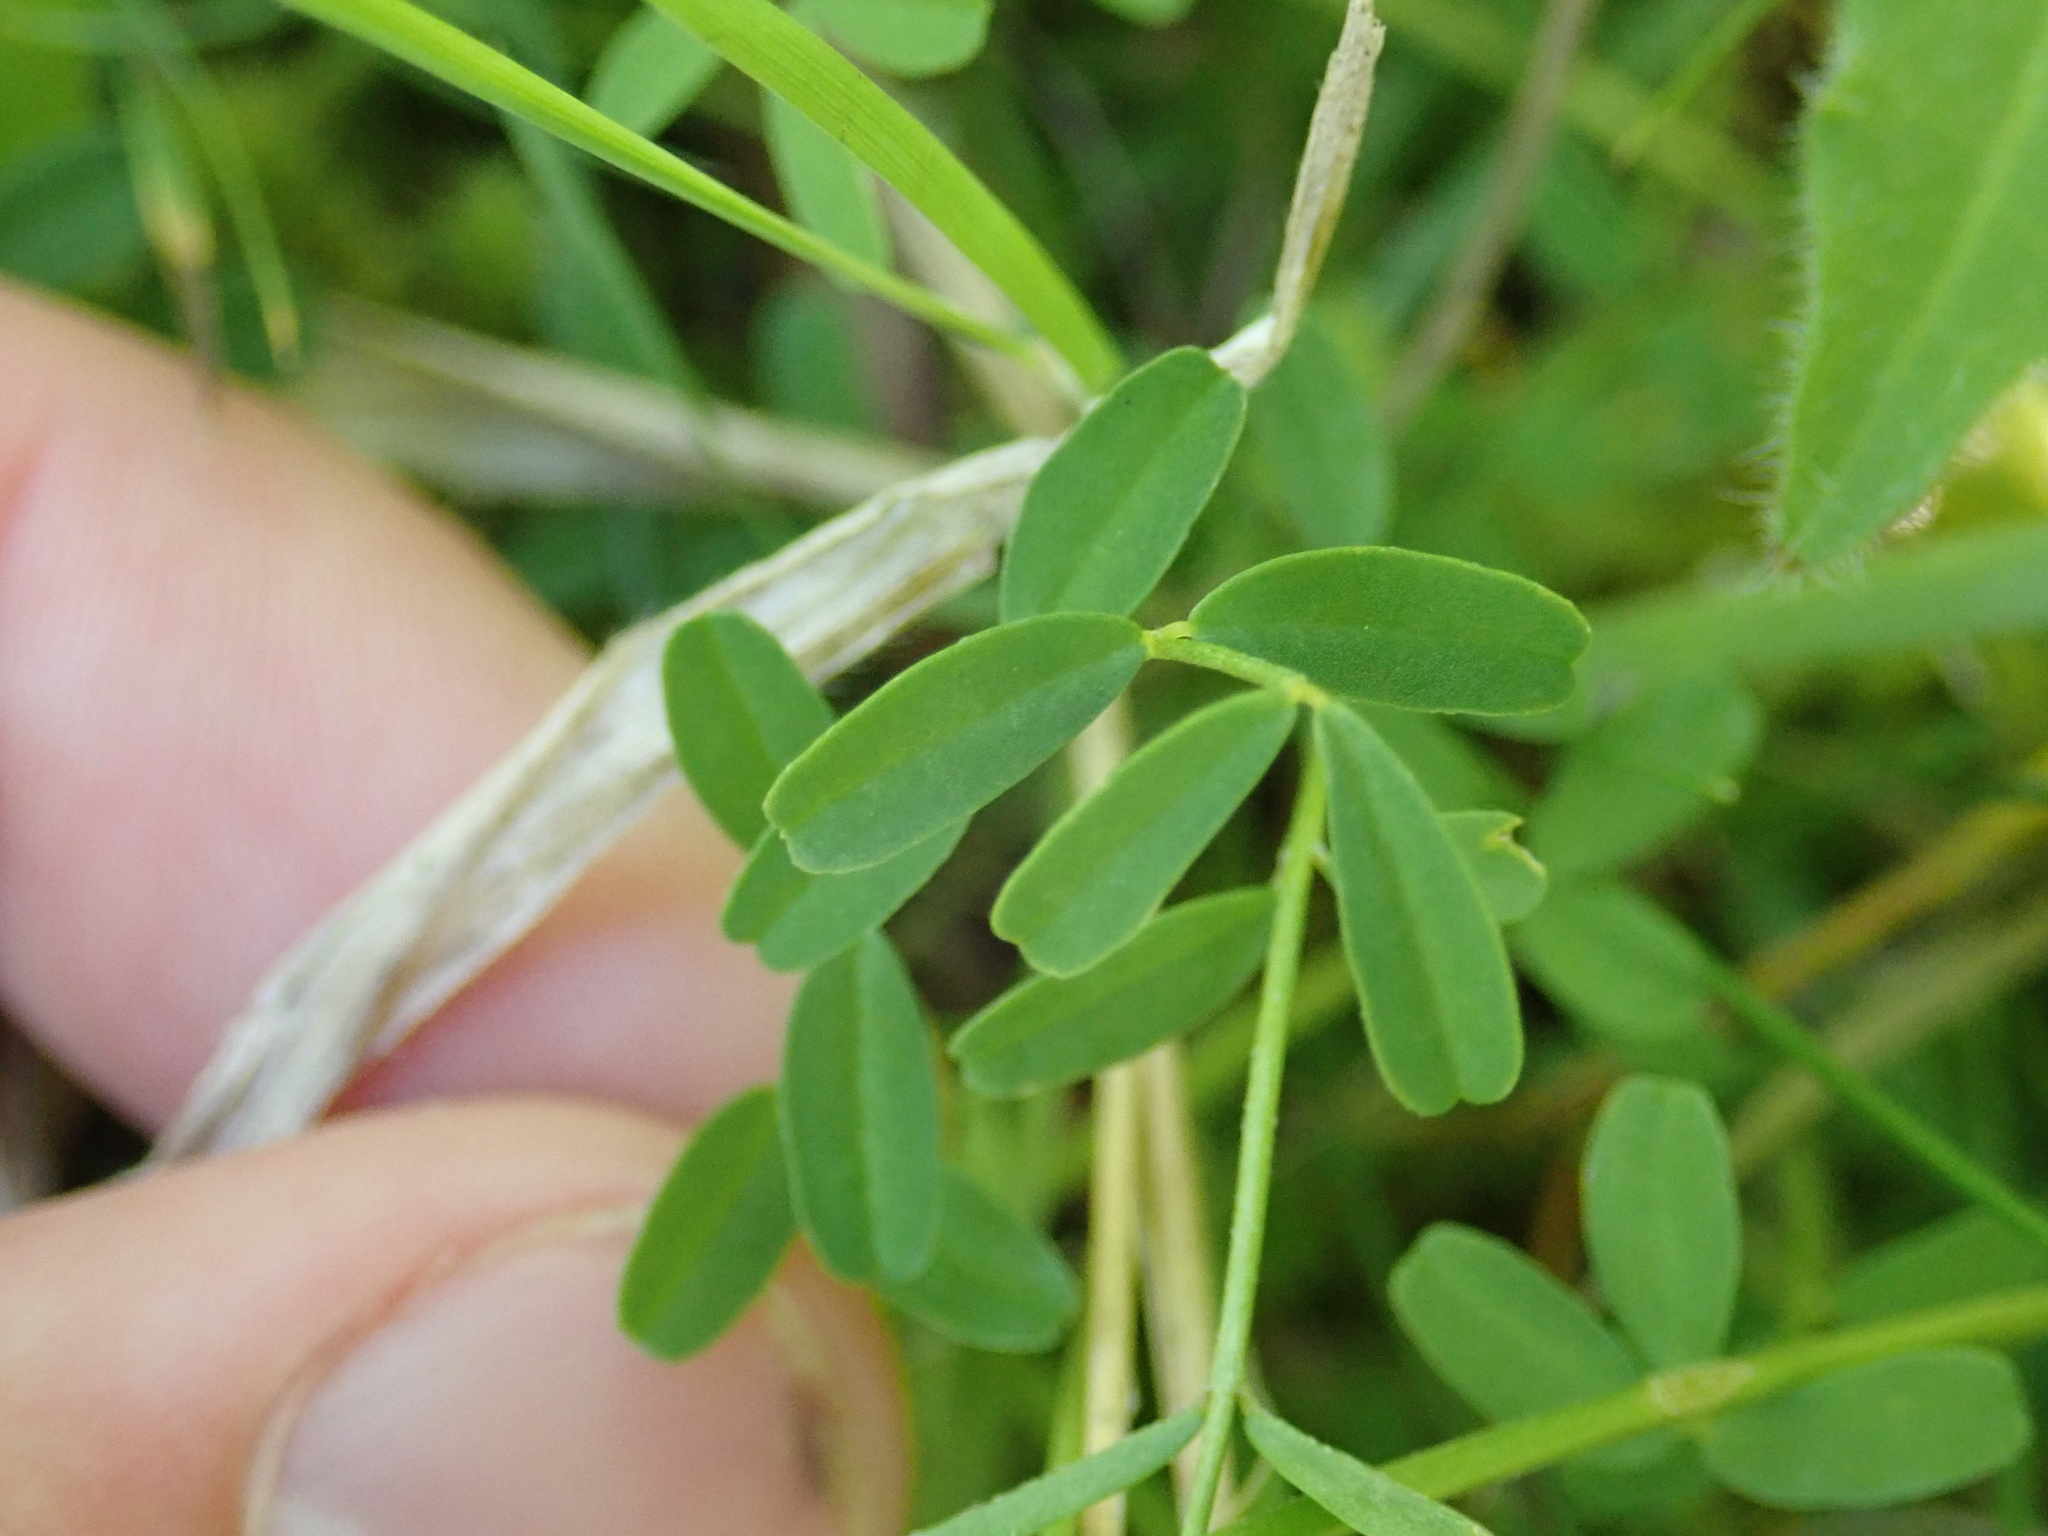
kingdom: Plantae
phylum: Tracheophyta
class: Magnoliopsida
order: Fabales
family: Fabaceae
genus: Hippocrepis
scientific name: Hippocrepis comosa
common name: Horseshoe vetch
